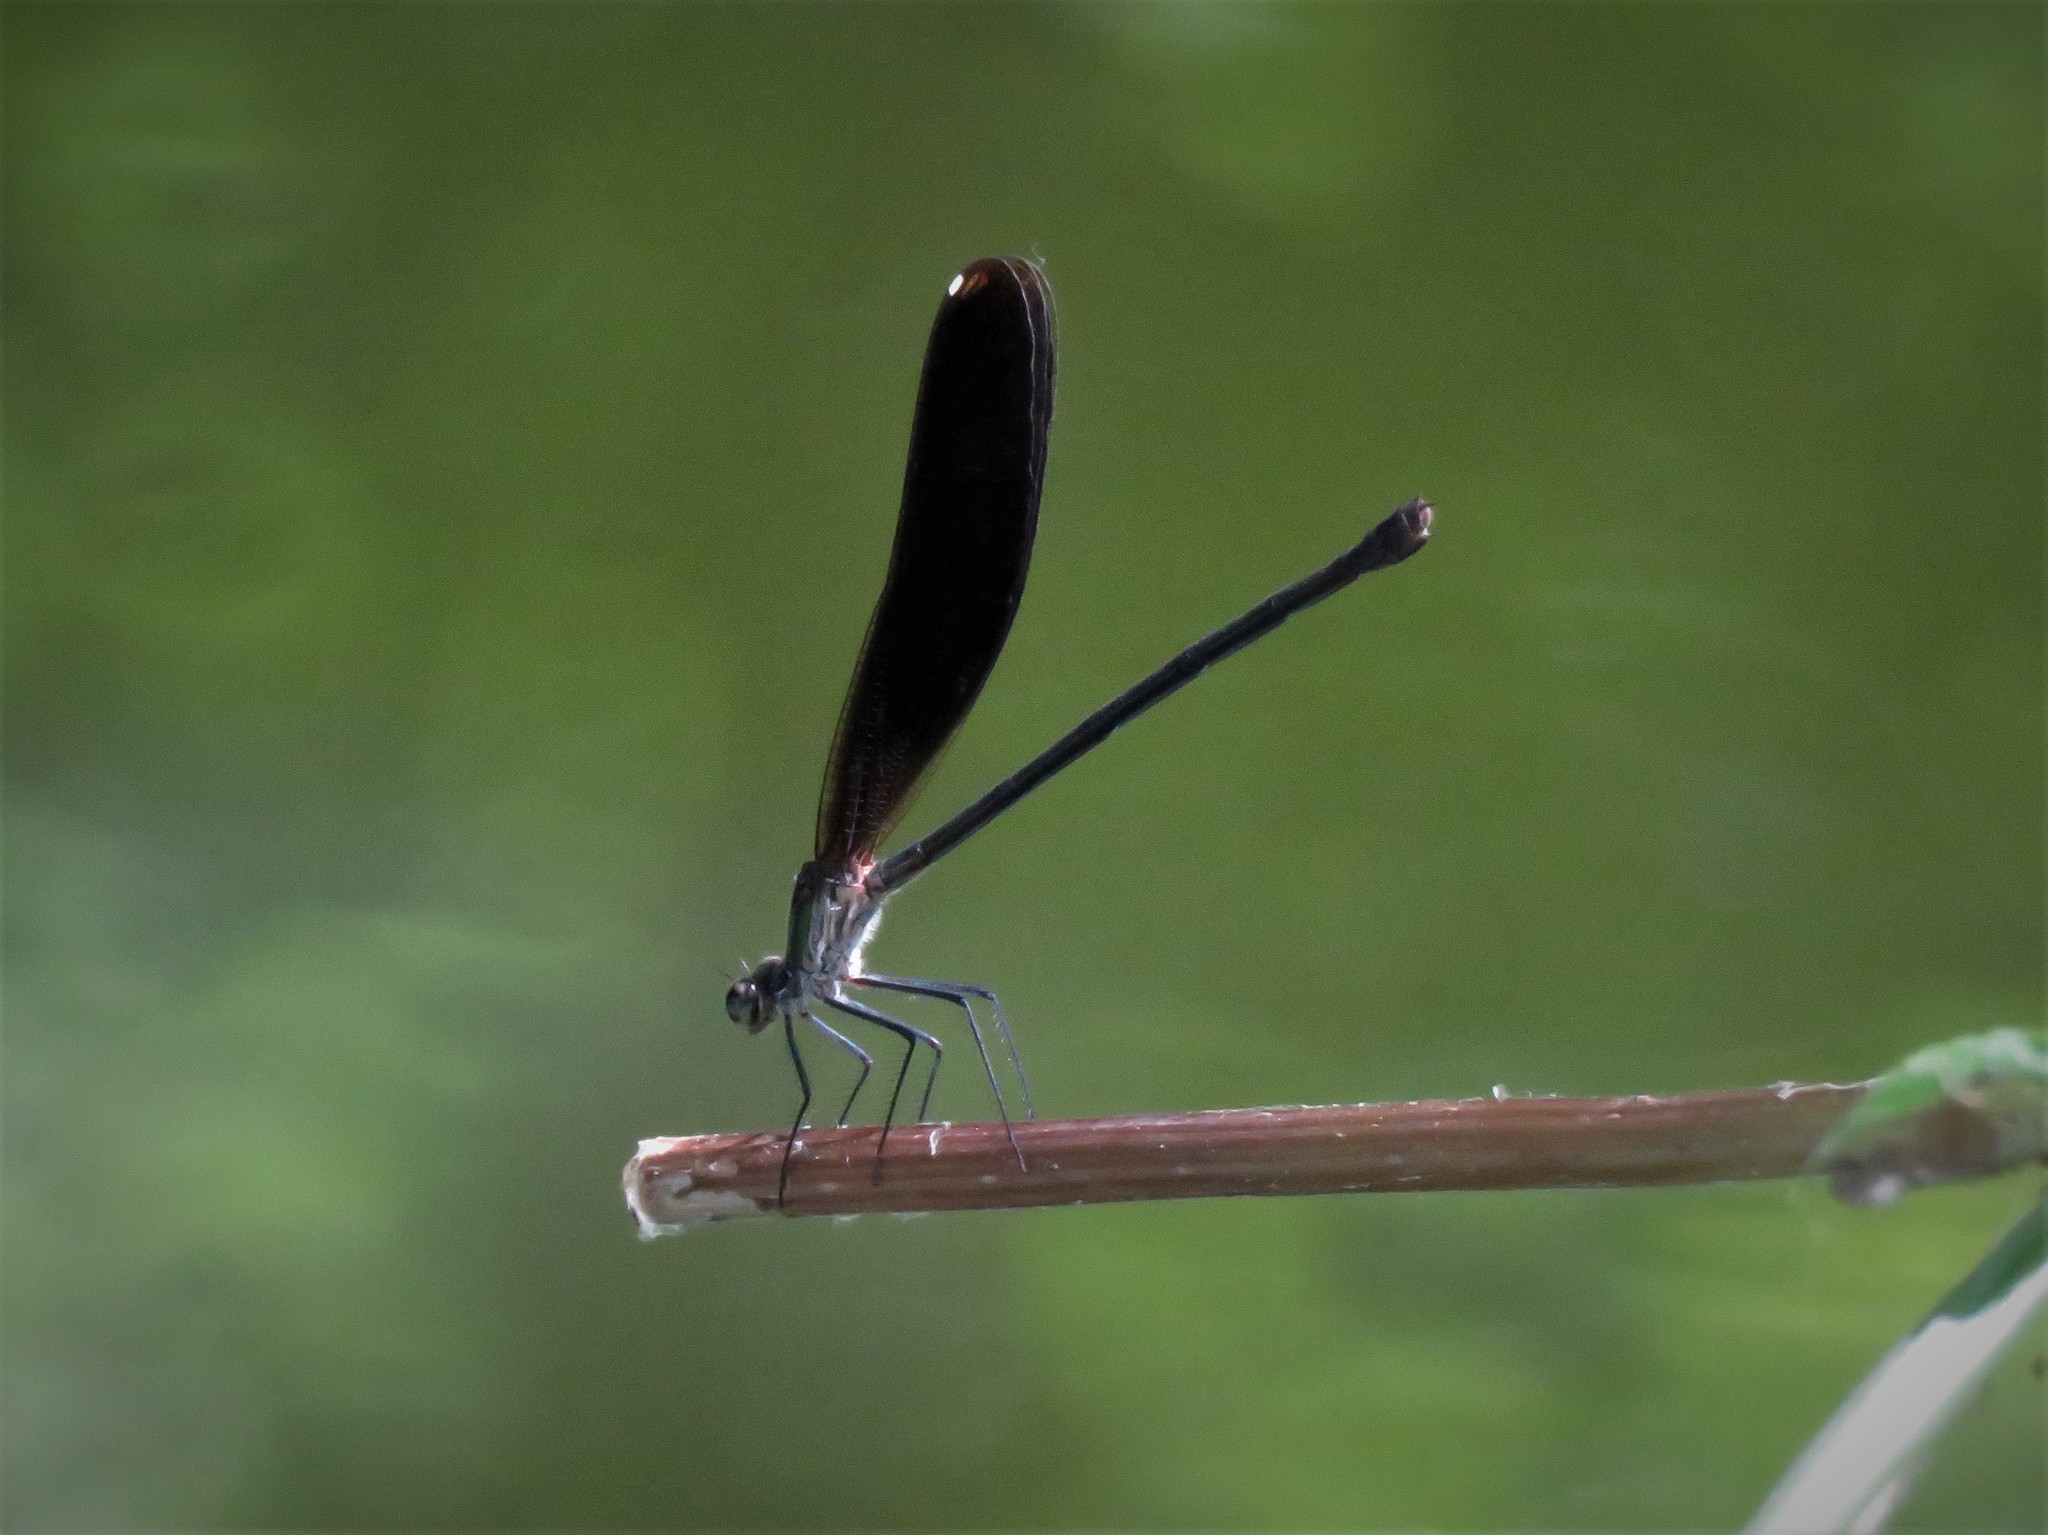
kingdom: Animalia
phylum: Arthropoda
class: Insecta
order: Odonata
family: Calopterygidae
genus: Hetaerina
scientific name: Hetaerina titia
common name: Smoky rubyspot
